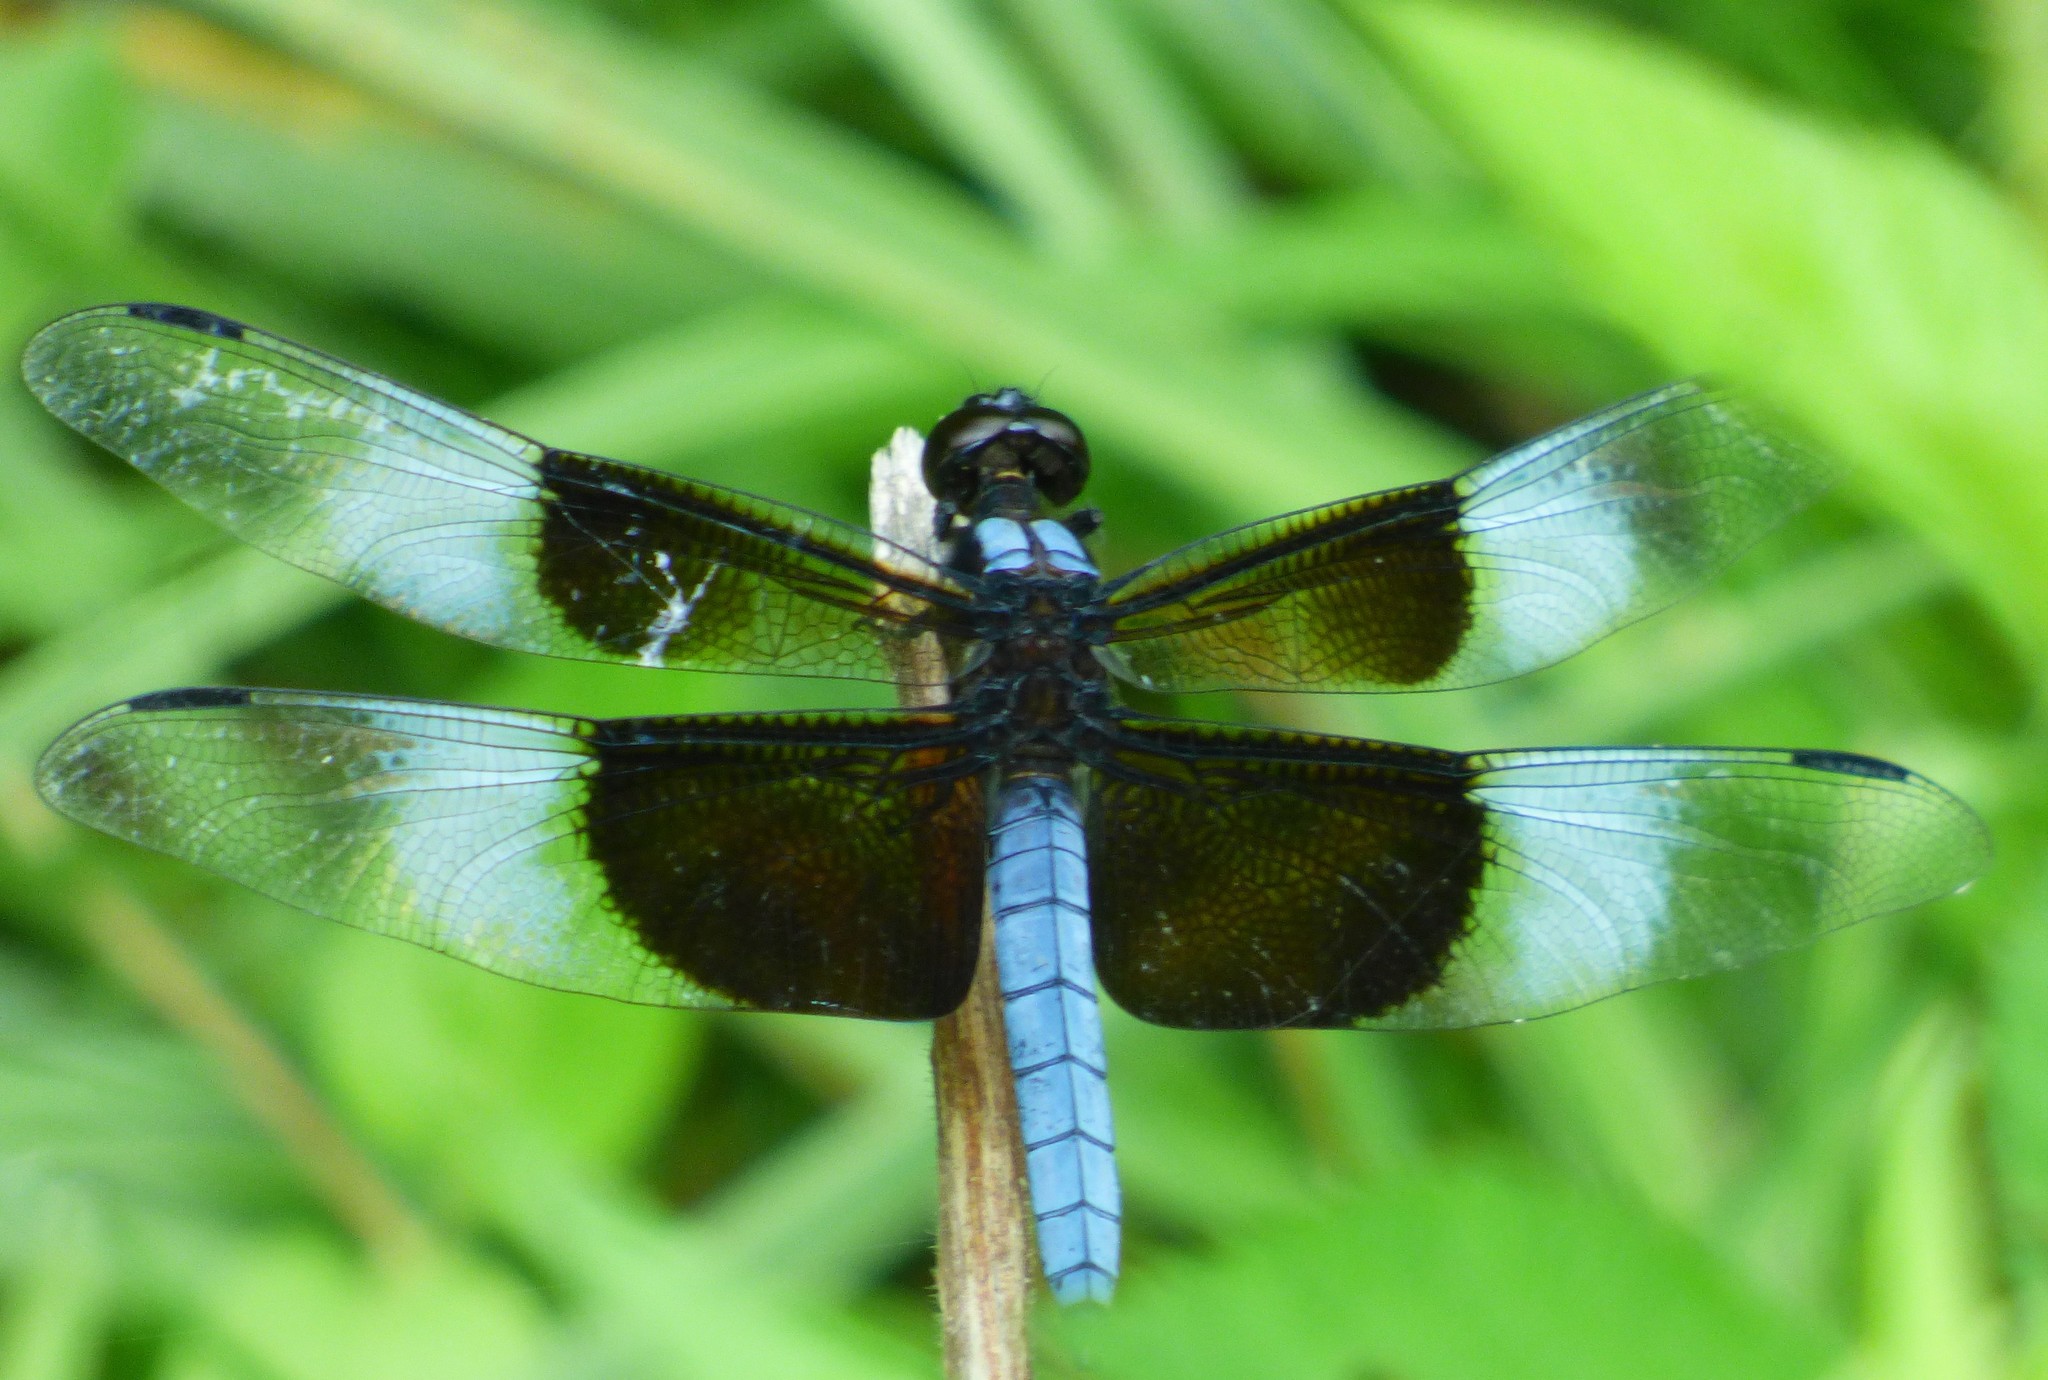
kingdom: Animalia
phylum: Arthropoda
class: Insecta
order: Odonata
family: Libellulidae
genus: Libellula
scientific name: Libellula luctuosa
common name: Widow skimmer
